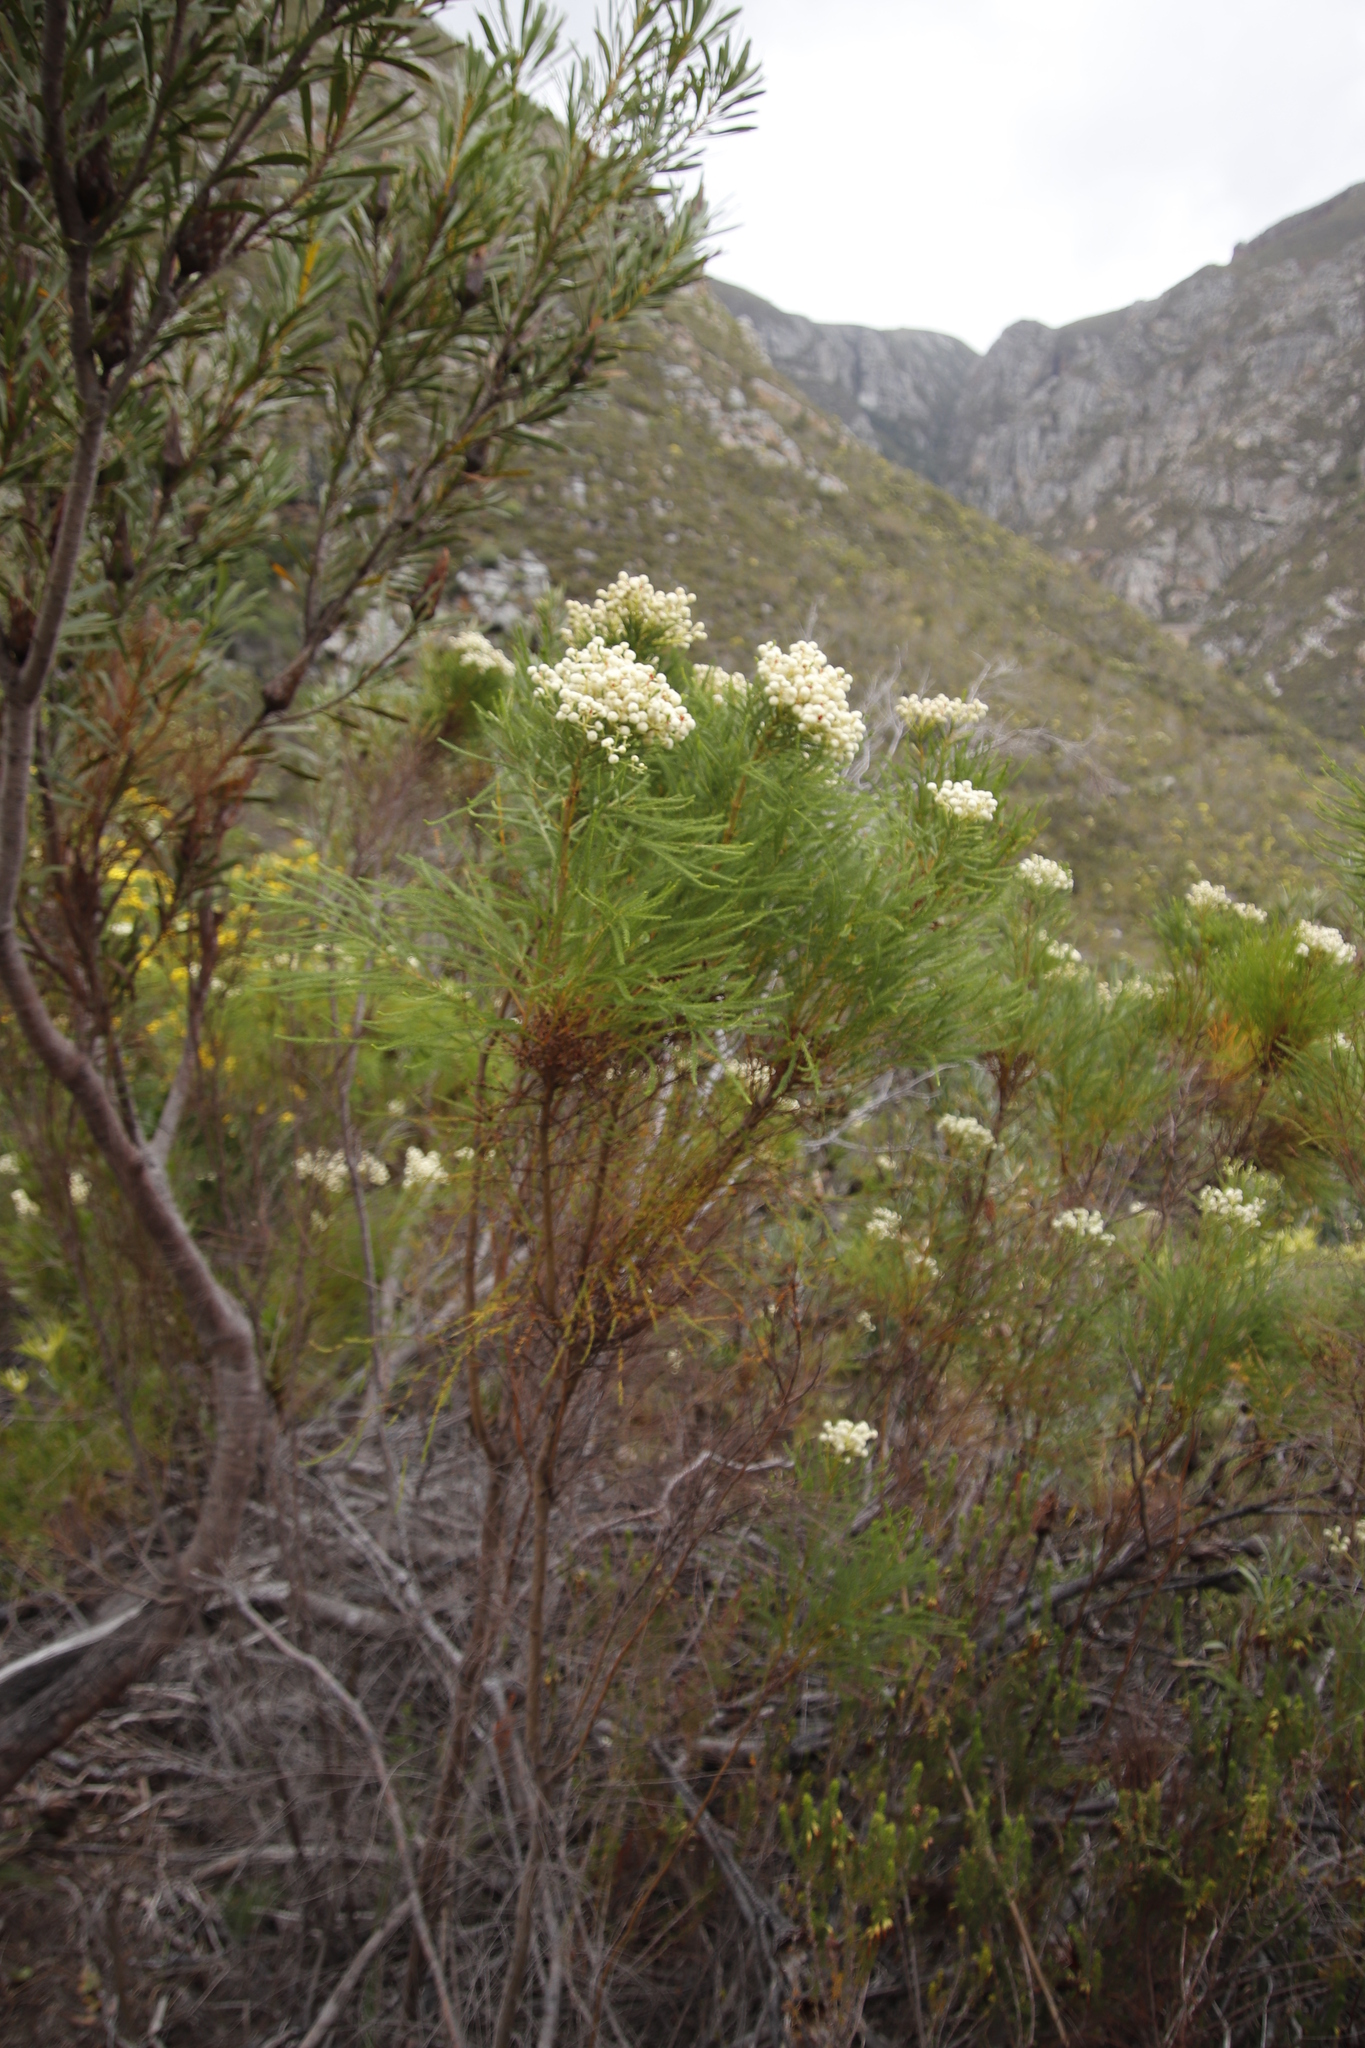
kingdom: Plantae
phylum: Tracheophyta
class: Magnoliopsida
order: Bruniales
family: Bruniaceae
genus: Berzelia
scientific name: Berzelia lanuginosa
